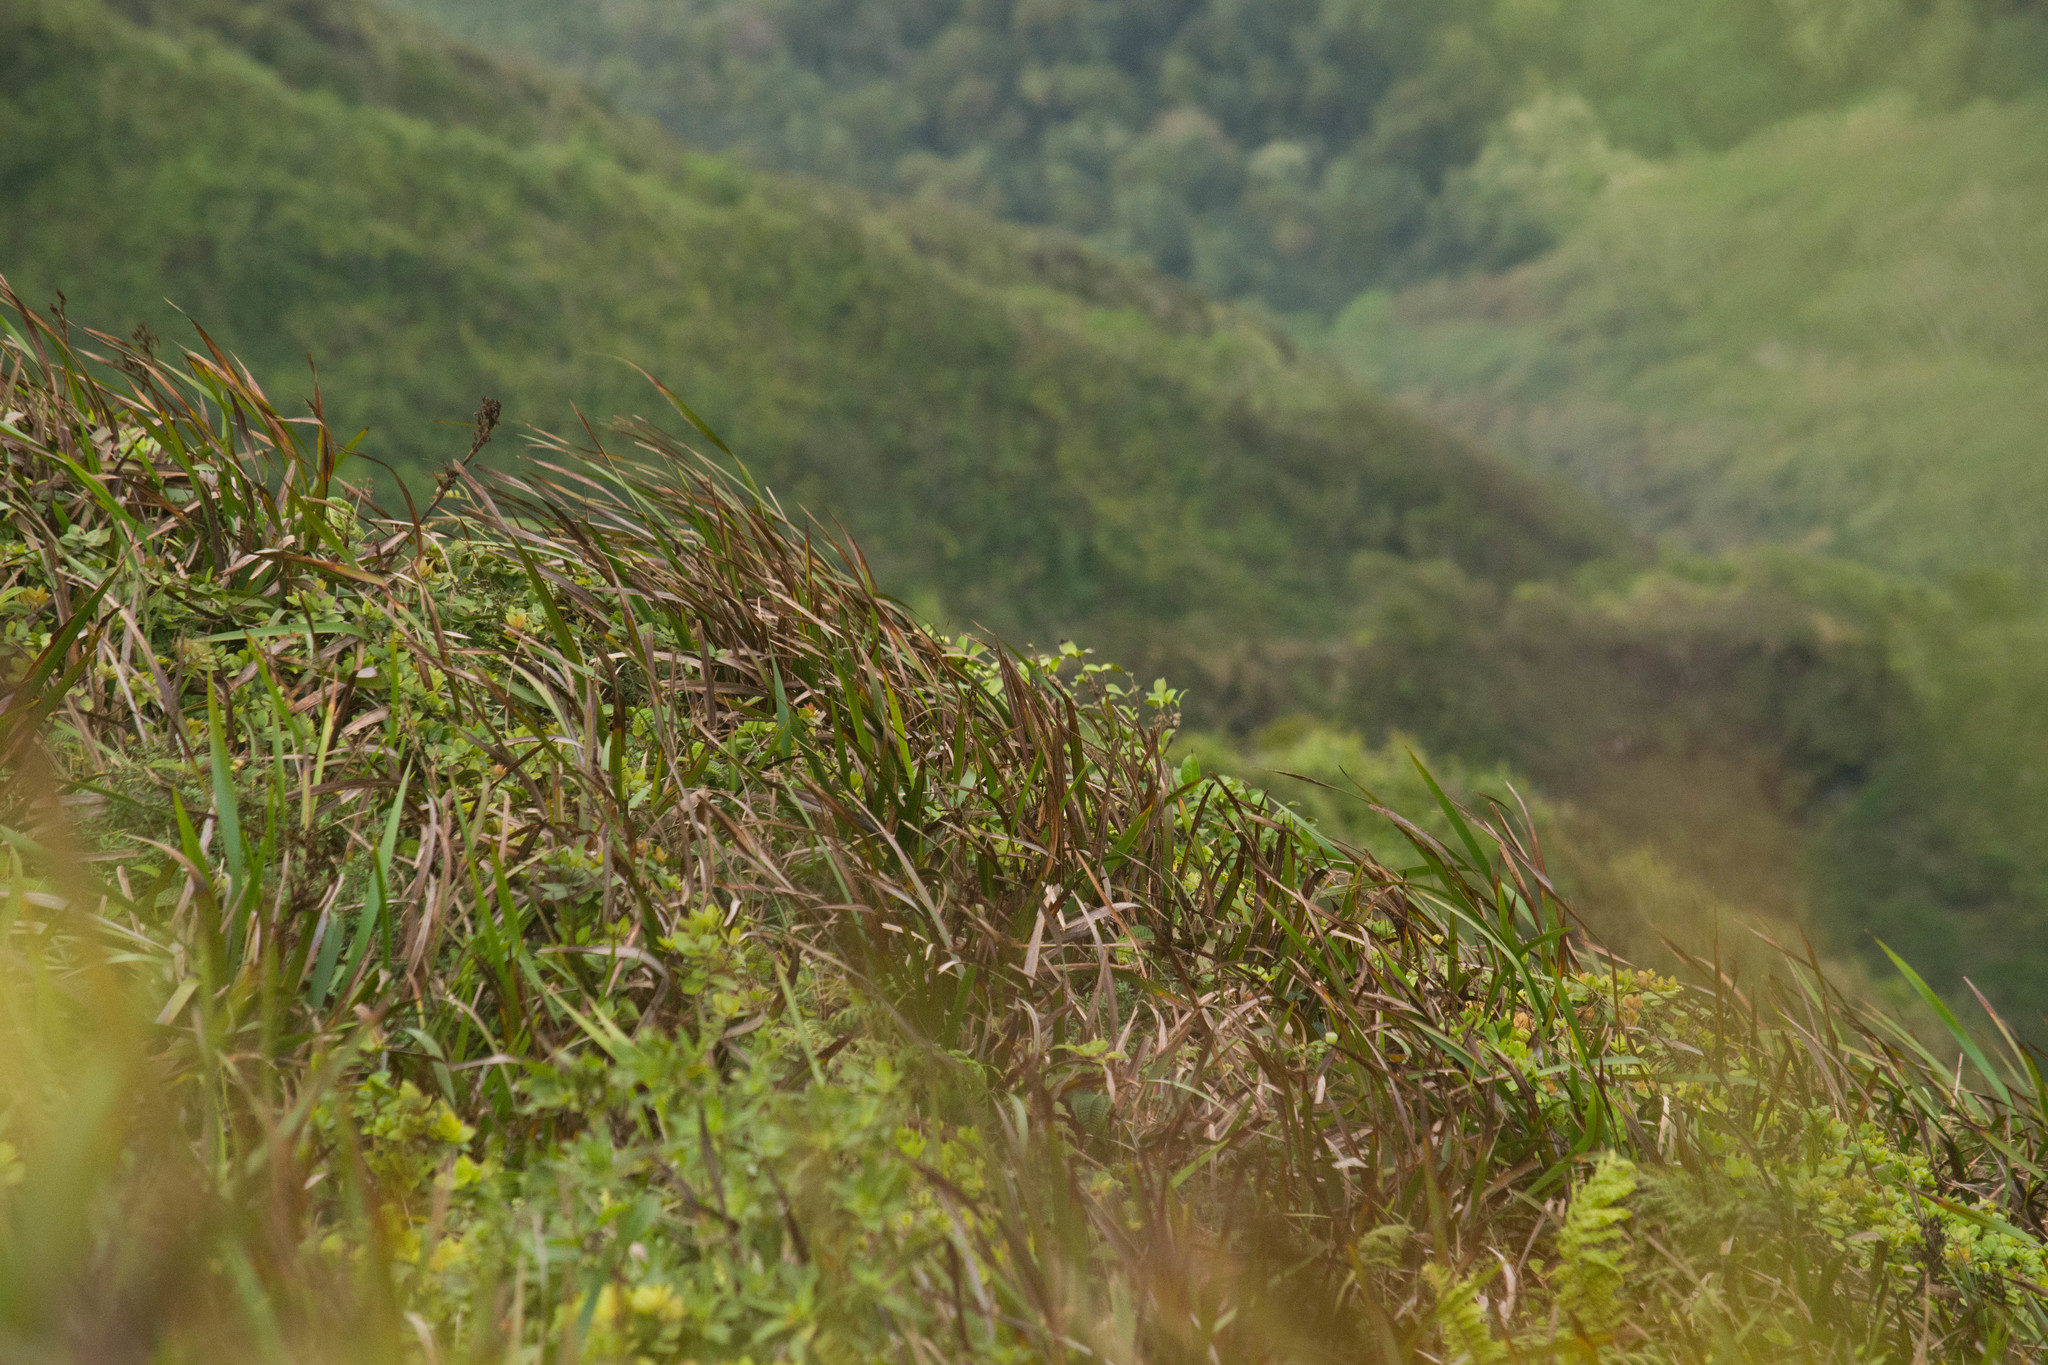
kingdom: Plantae
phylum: Tracheophyta
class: Liliopsida
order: Poales
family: Cyperaceae
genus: Machaerina
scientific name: Machaerina angustifolia
